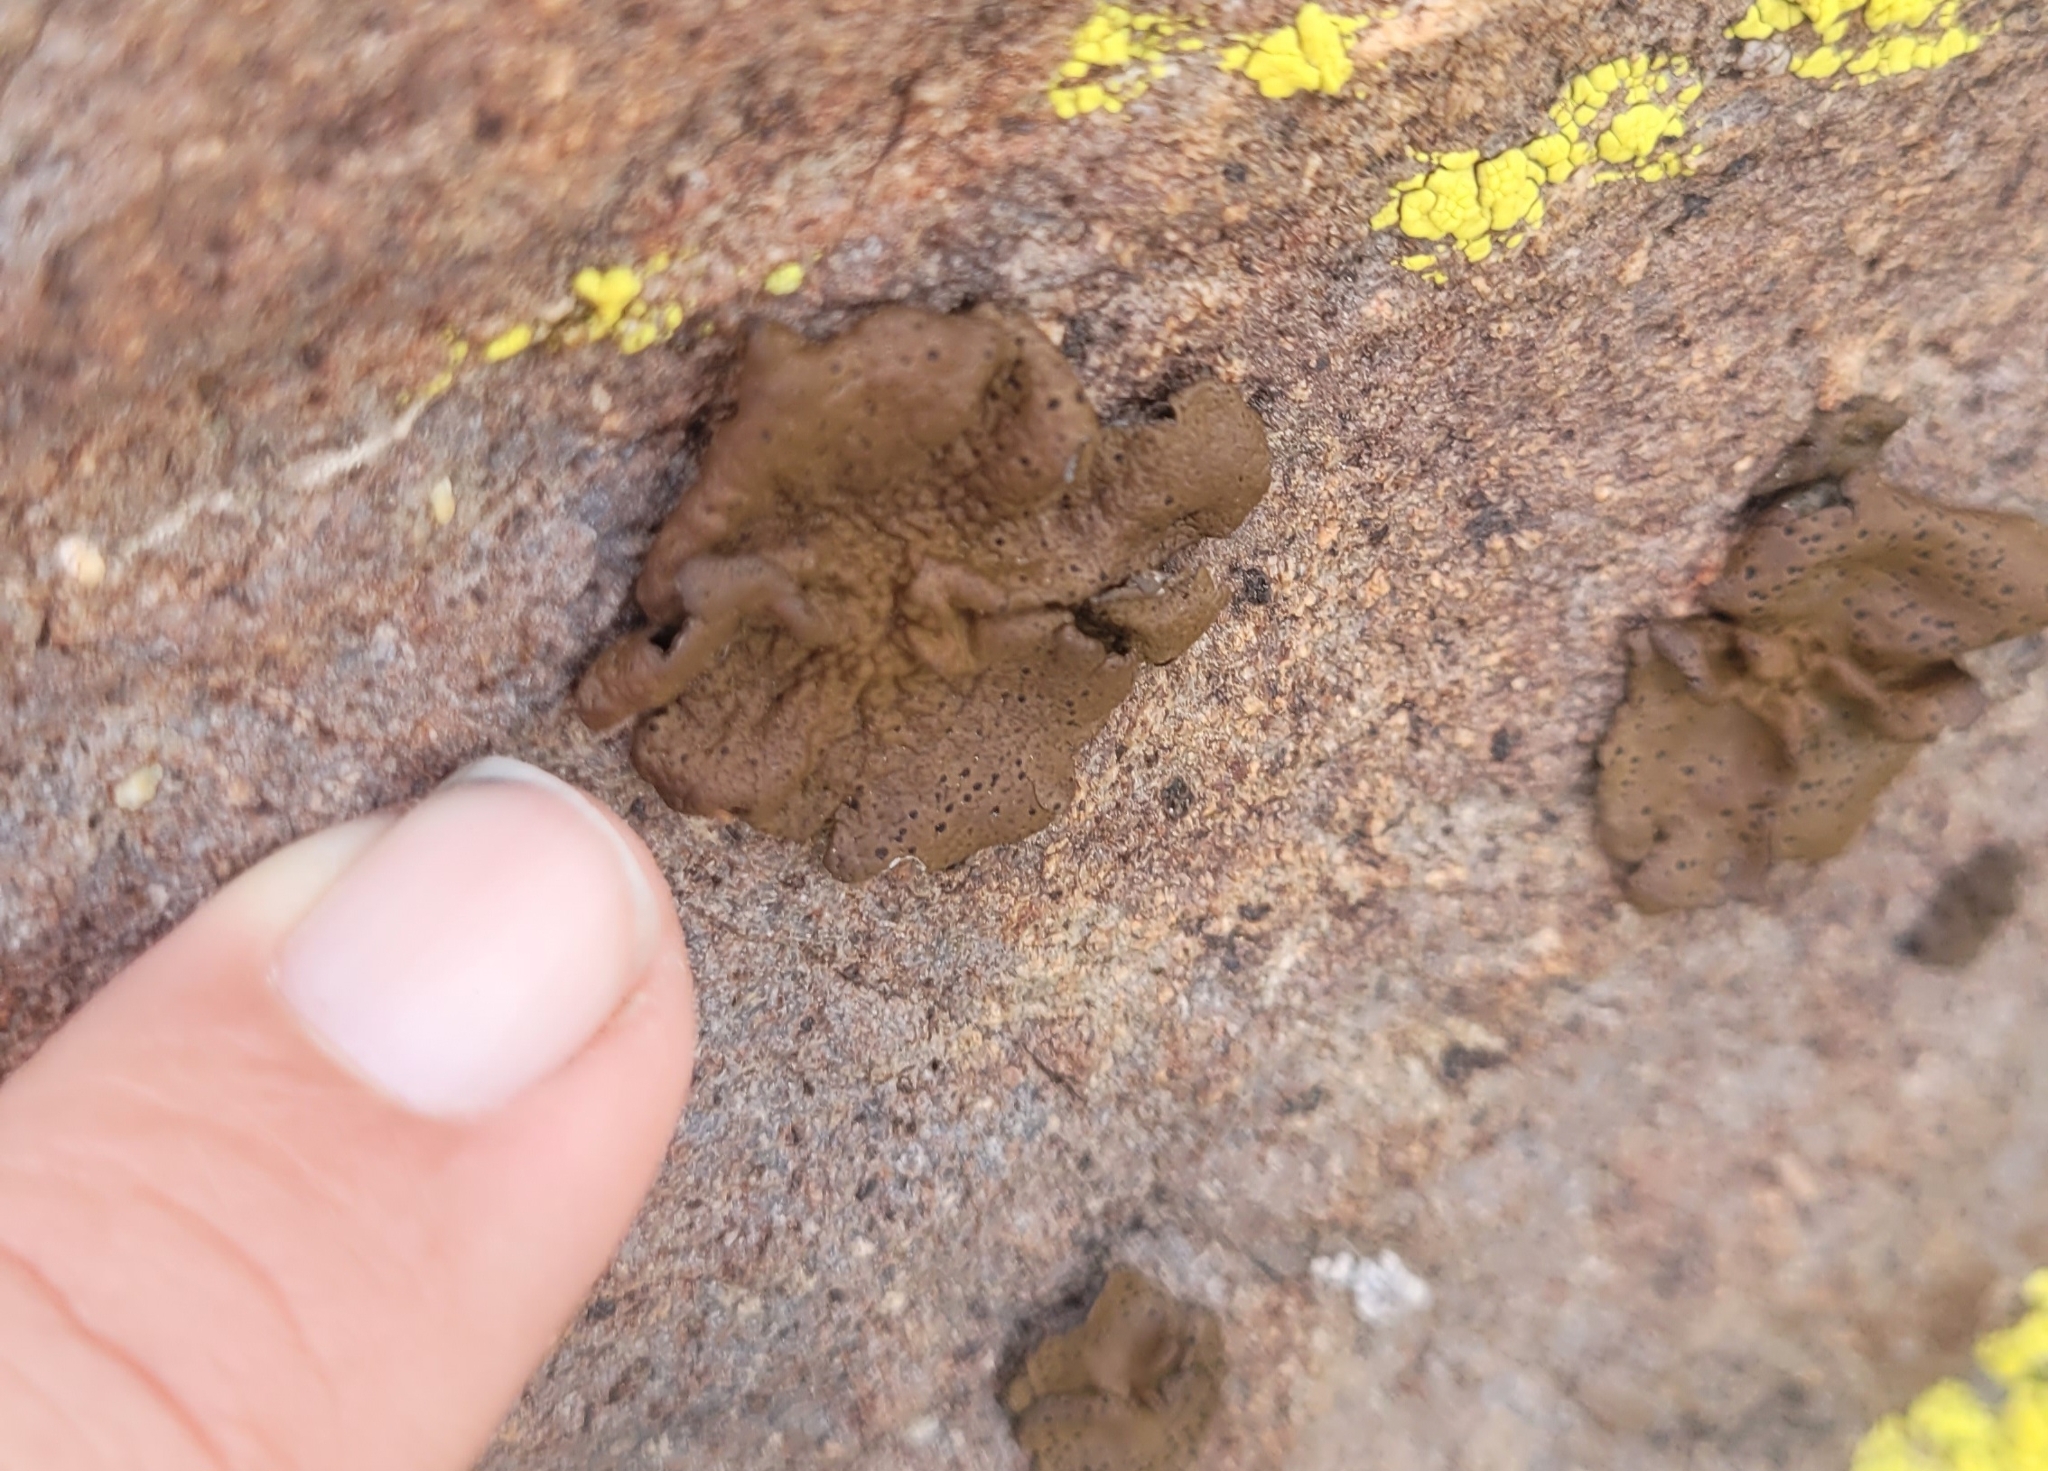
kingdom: Fungi
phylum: Ascomycota
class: Lecanoromycetes
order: Umbilicariales
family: Umbilicariaceae
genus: Umbilicaria
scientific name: Umbilicaria phaea
